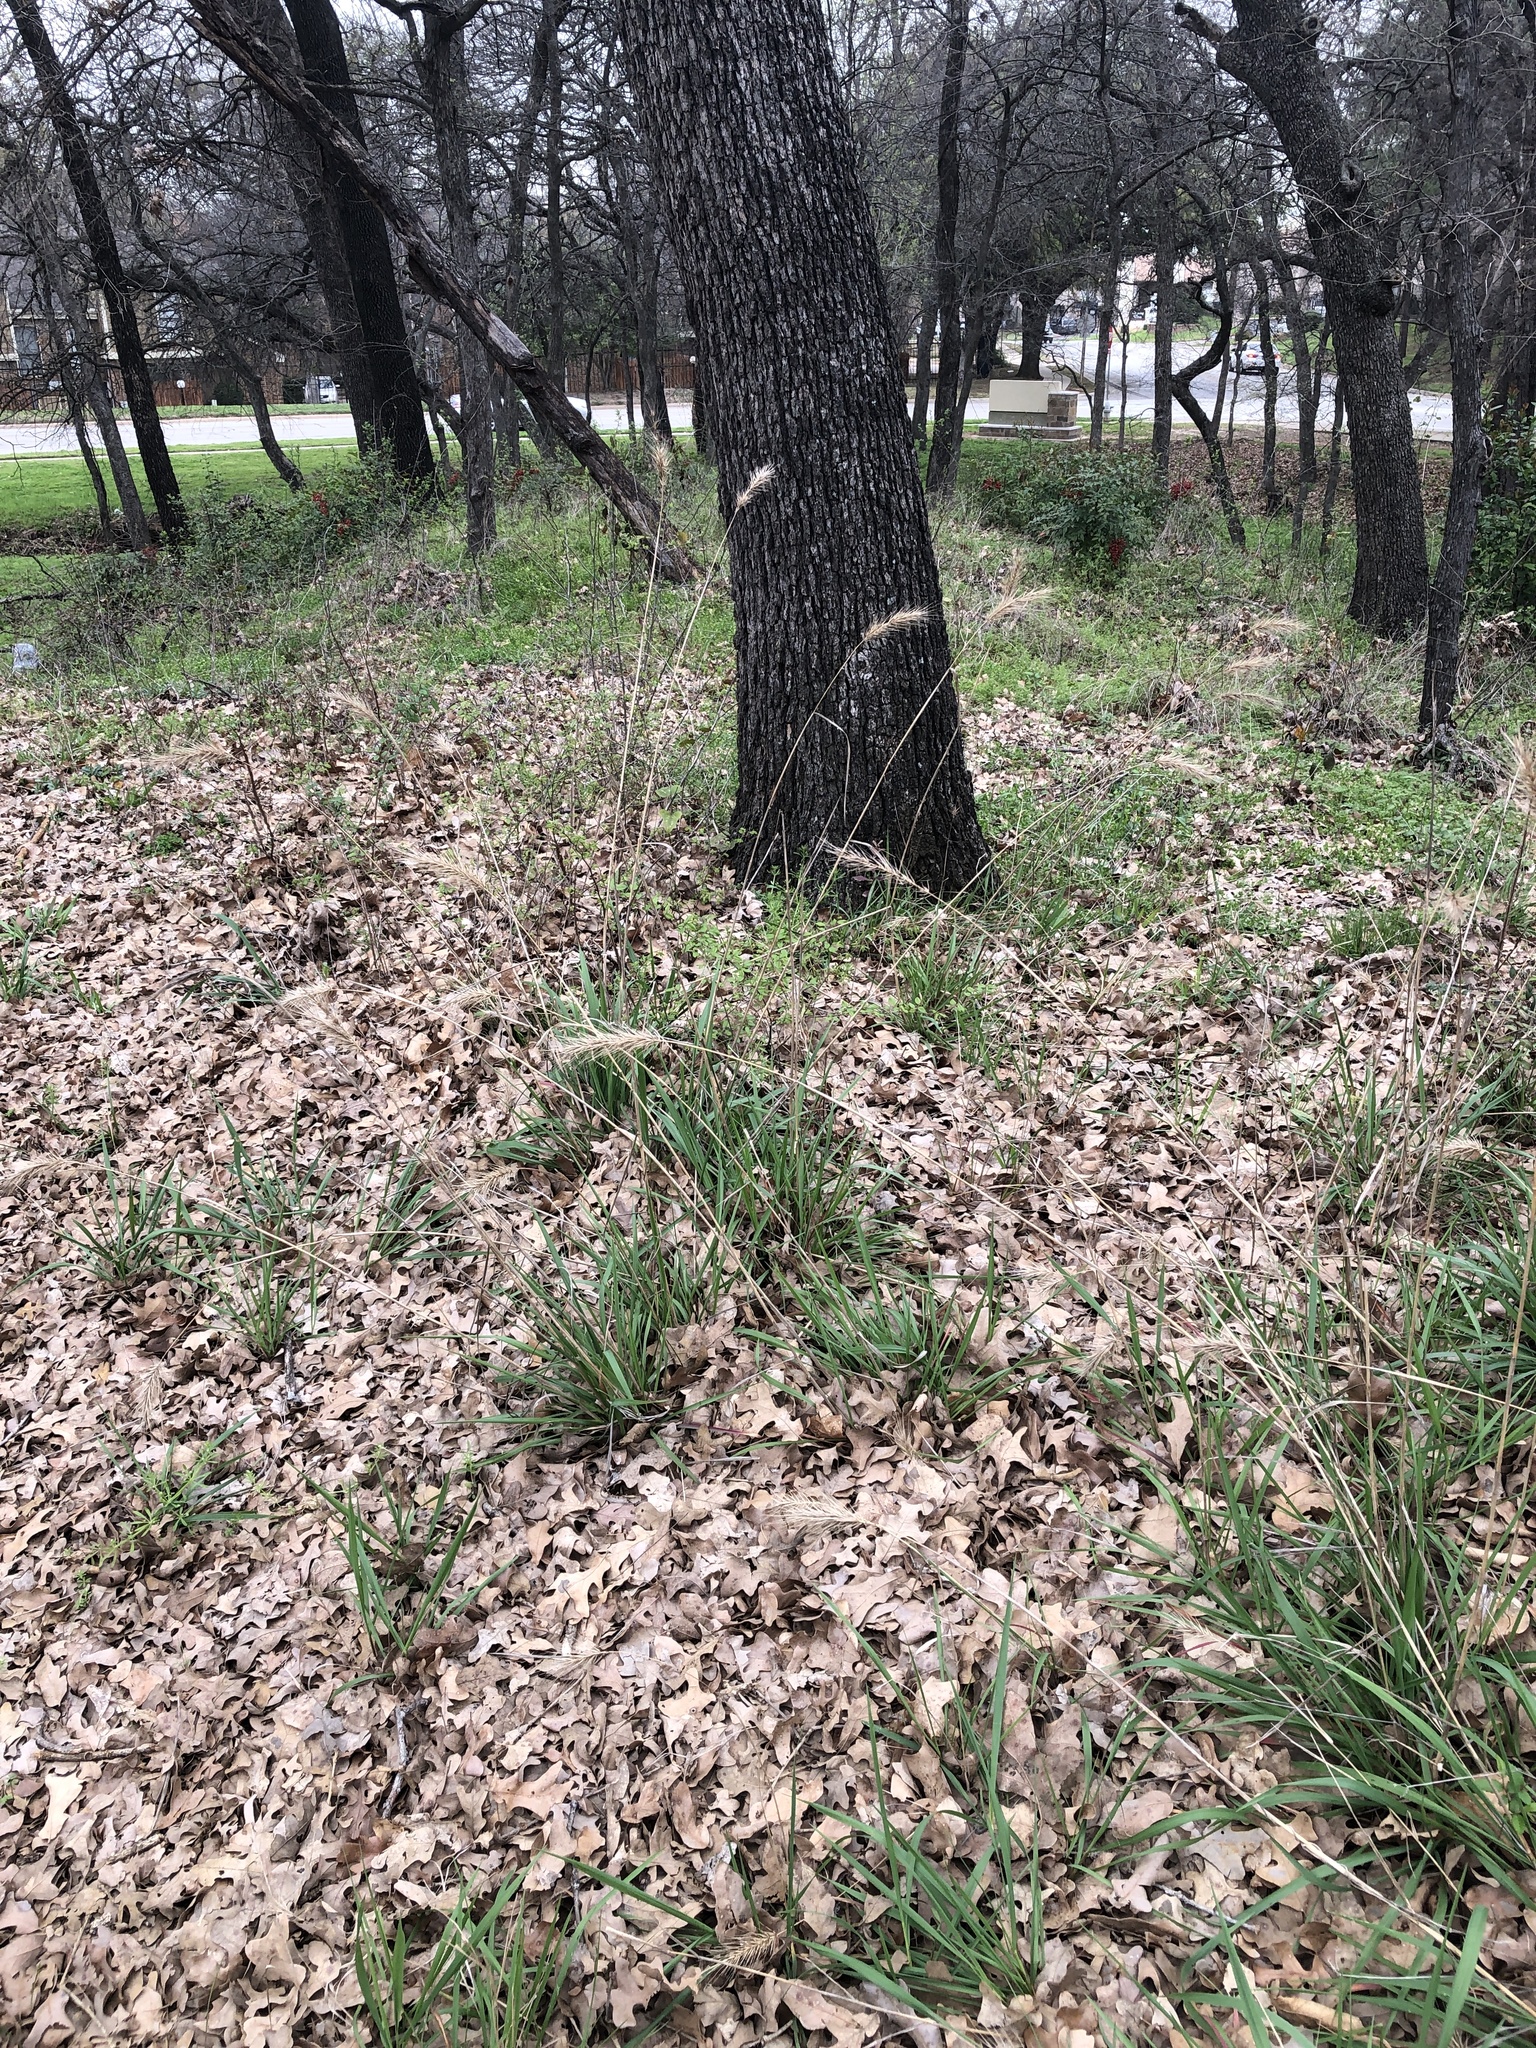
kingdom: Plantae
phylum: Tracheophyta
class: Liliopsida
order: Poales
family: Poaceae
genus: Elymus
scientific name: Elymus canadensis
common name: Canada wild rye
